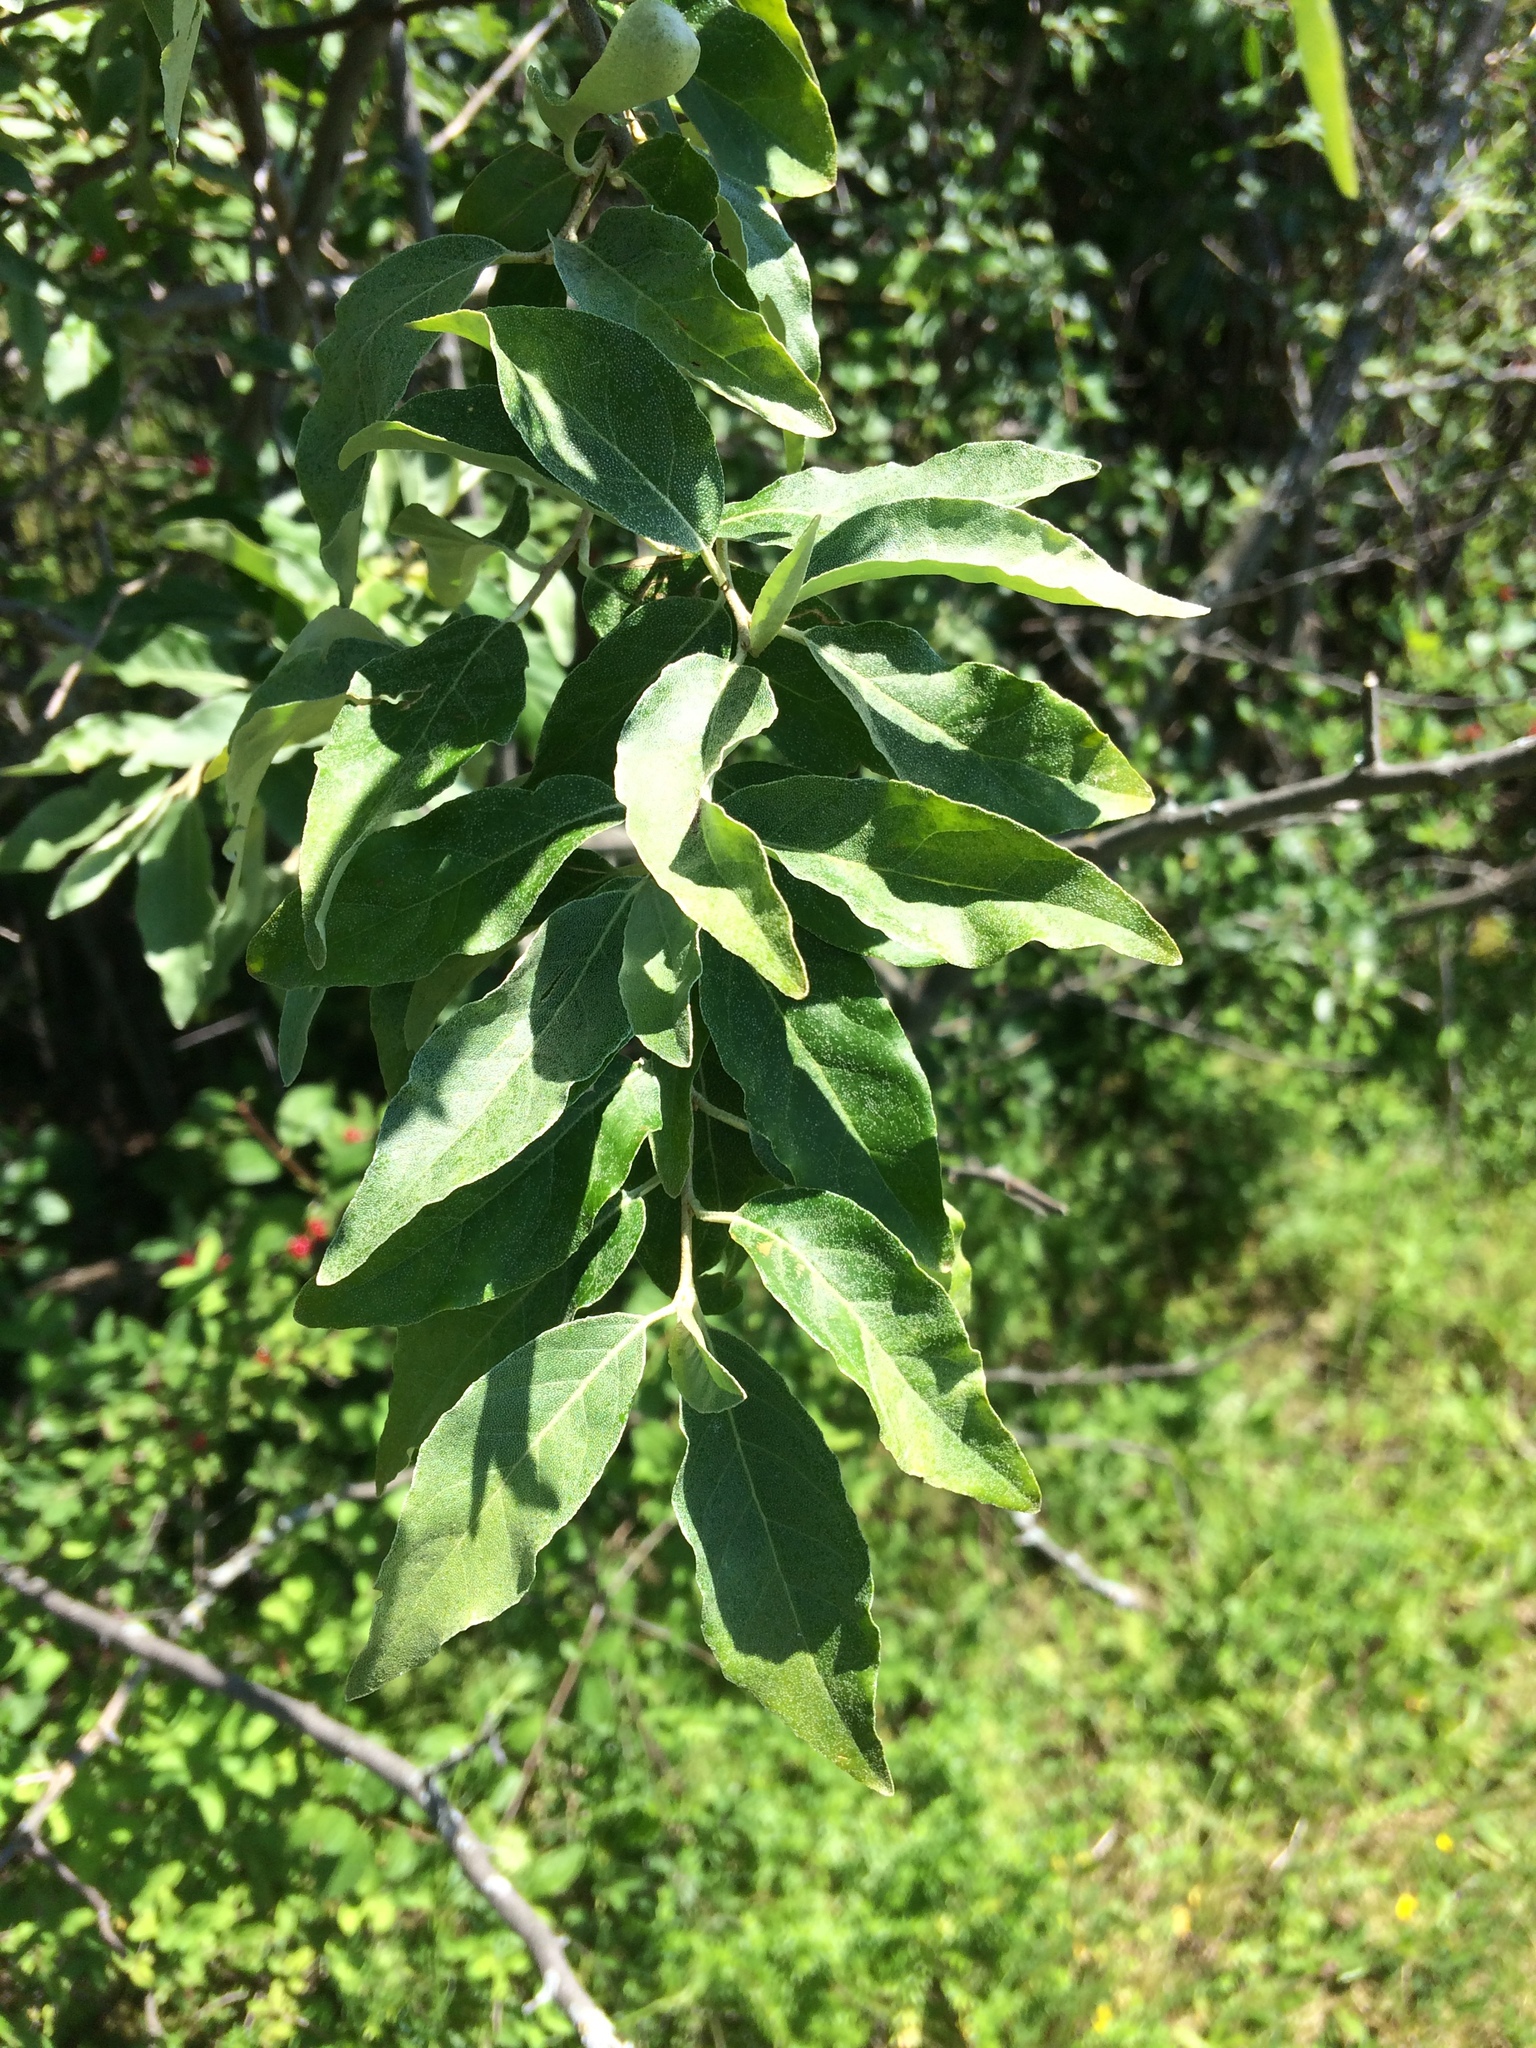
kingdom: Plantae
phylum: Tracheophyta
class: Magnoliopsida
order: Rosales
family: Elaeagnaceae
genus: Elaeagnus
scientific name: Elaeagnus umbellata
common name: Autumn olive
